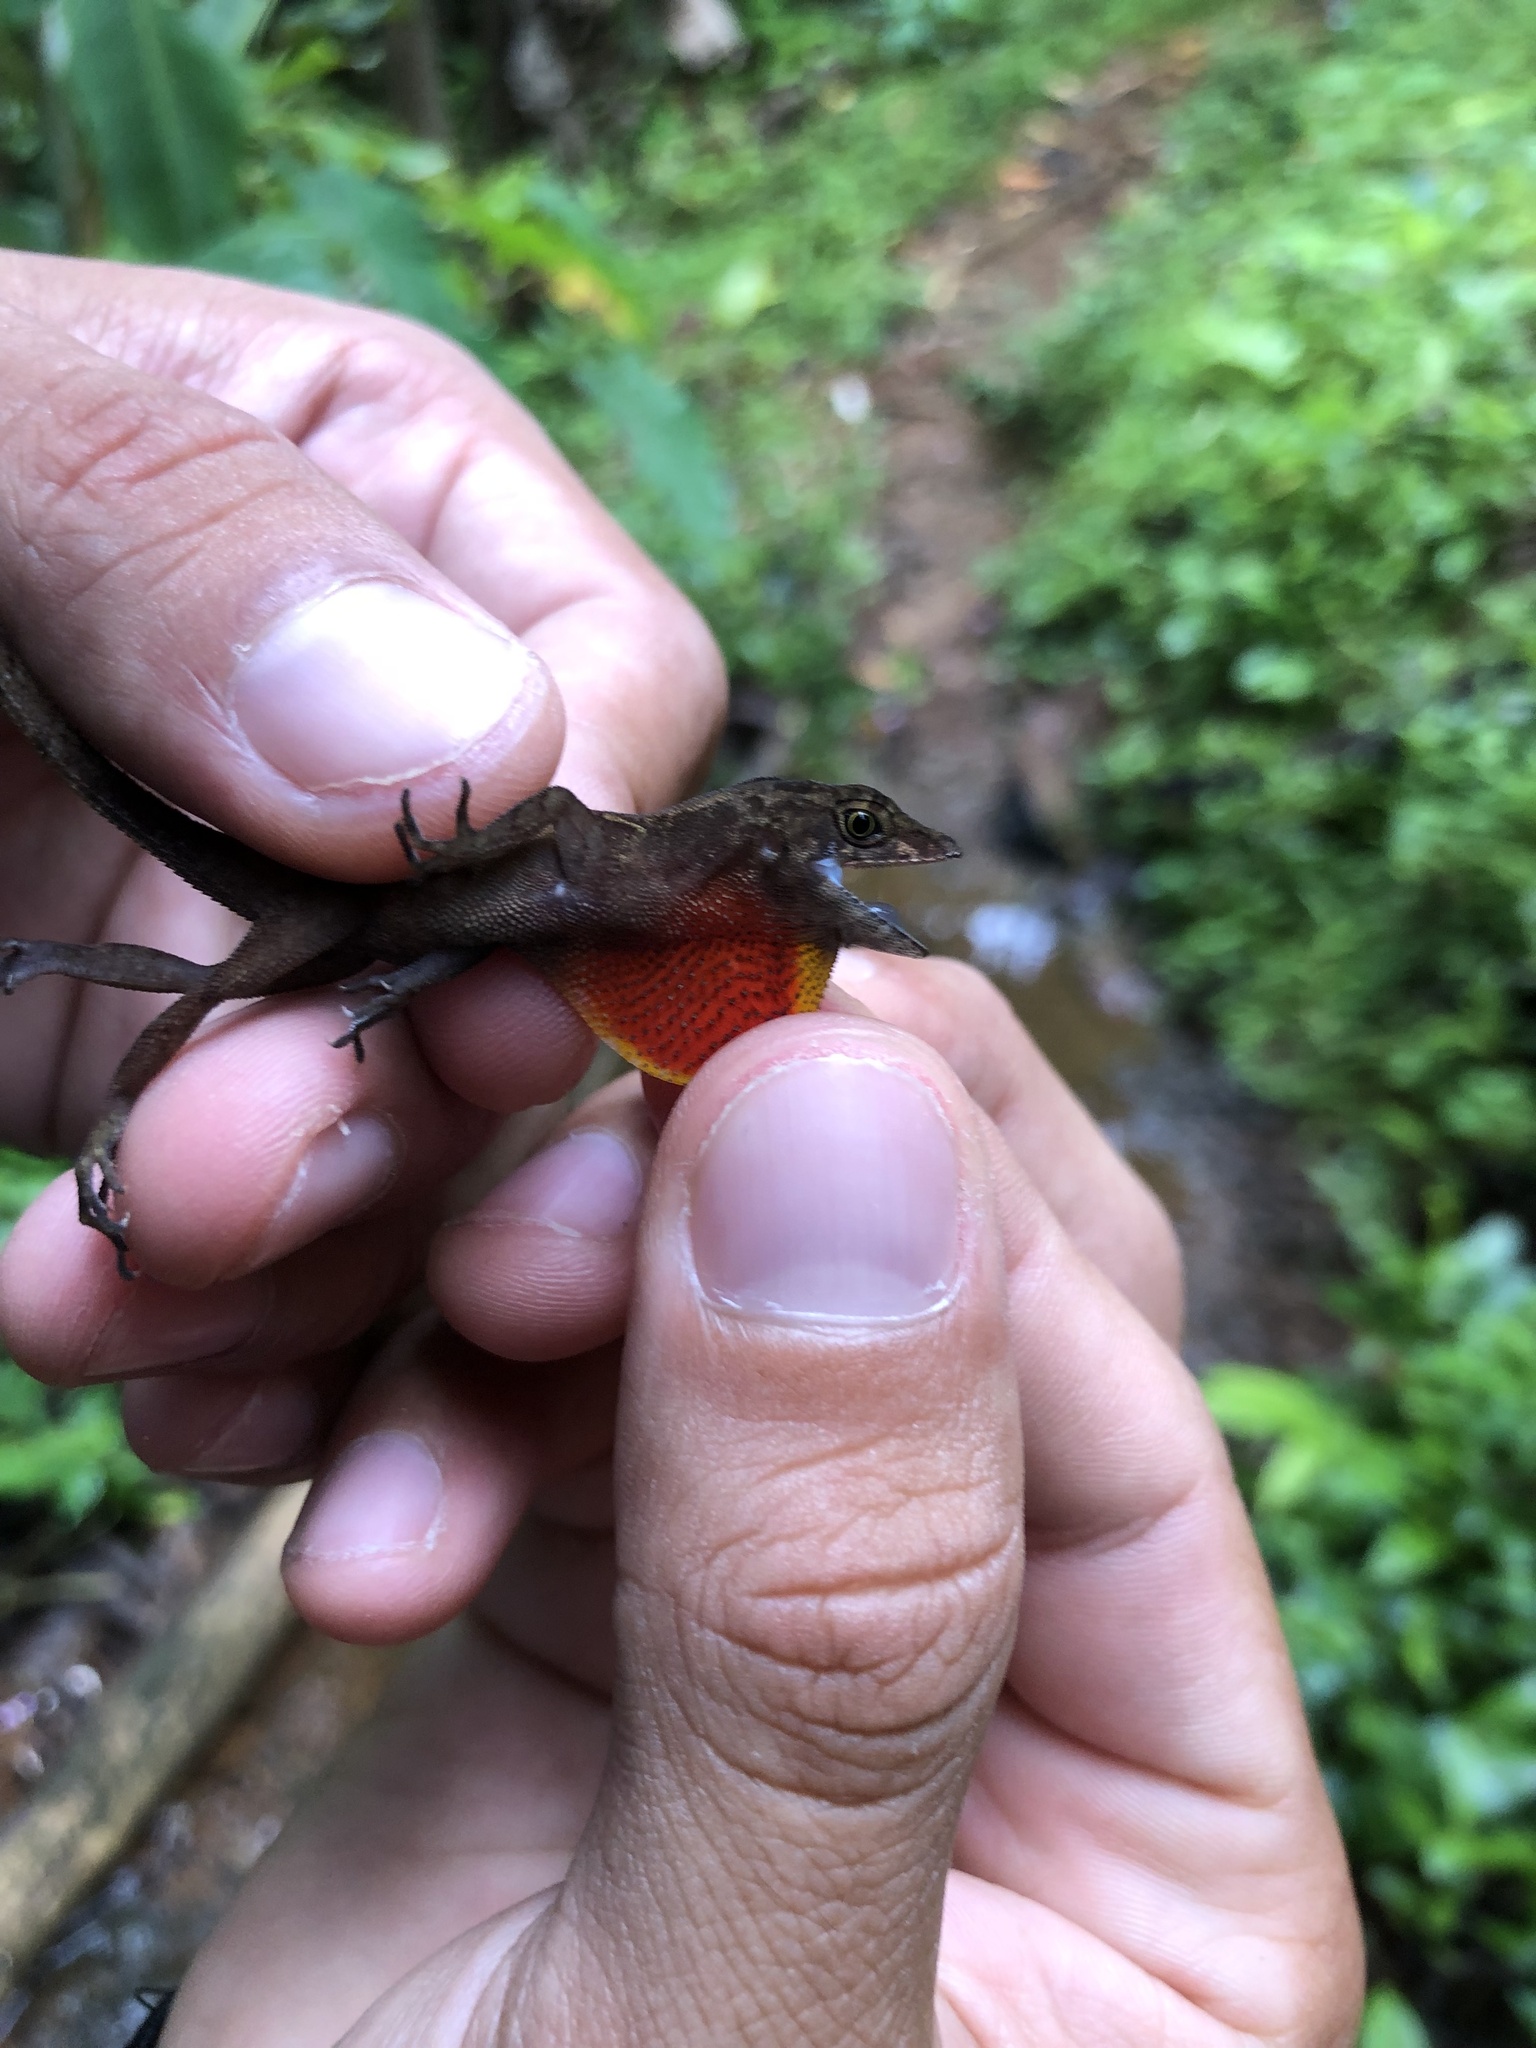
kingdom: Animalia
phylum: Chordata
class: Squamata
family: Dactyloidae
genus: Anolis
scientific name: Anolis humilis
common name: Humble anole
